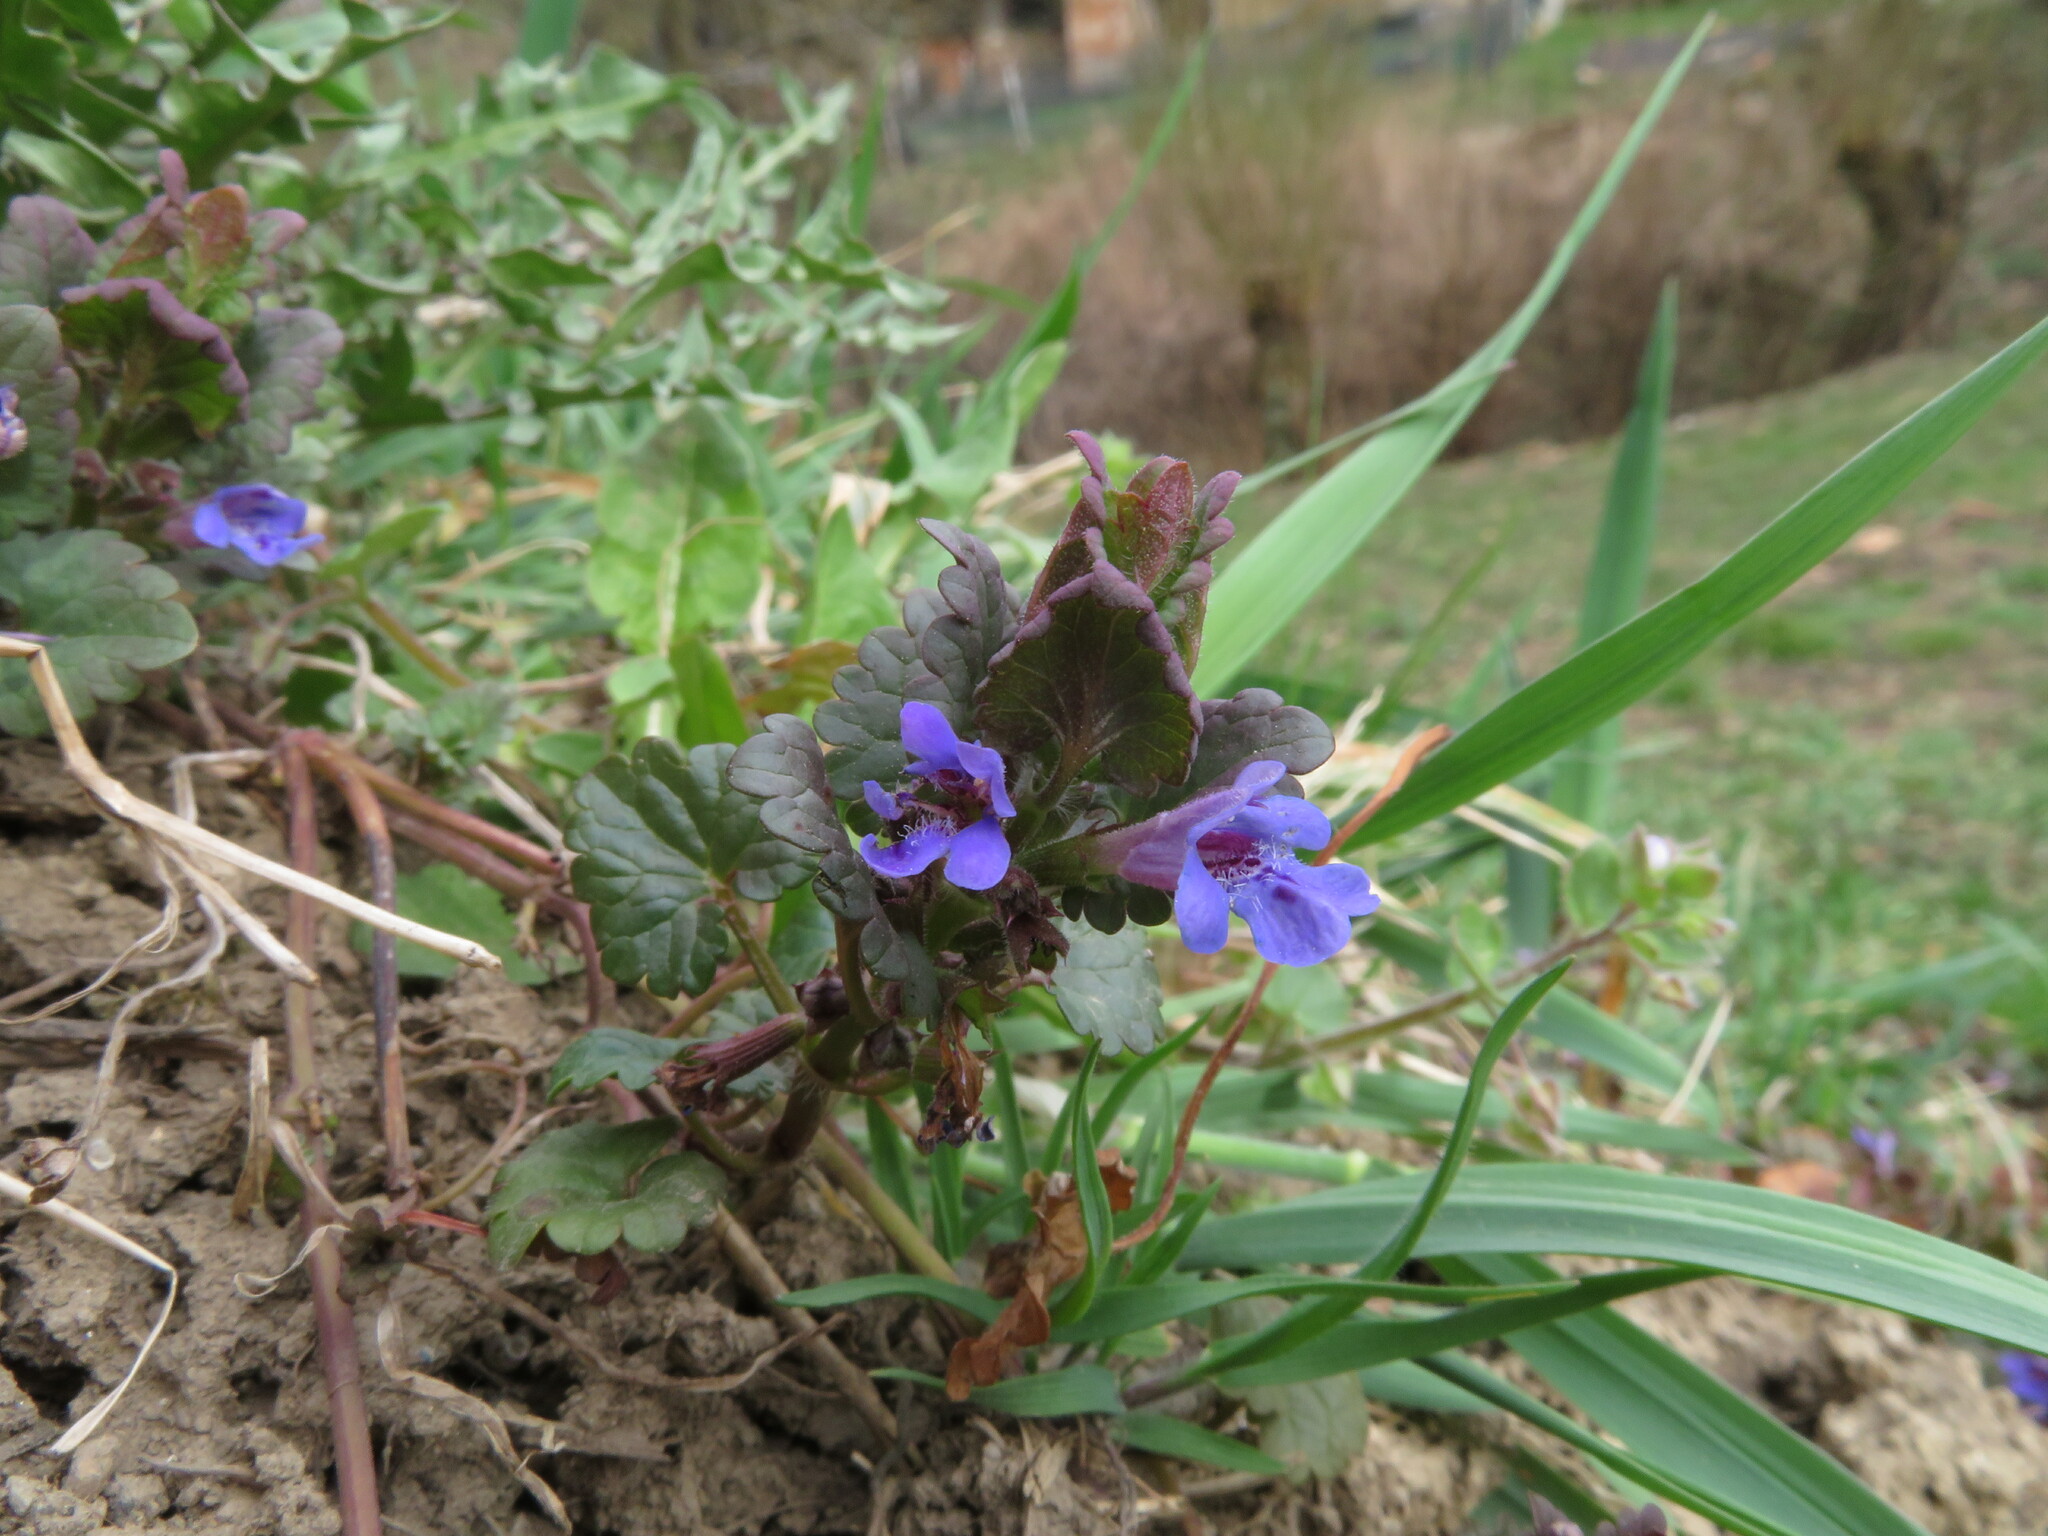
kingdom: Plantae
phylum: Tracheophyta
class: Magnoliopsida
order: Lamiales
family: Lamiaceae
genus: Glechoma
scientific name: Glechoma hederacea
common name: Ground ivy
